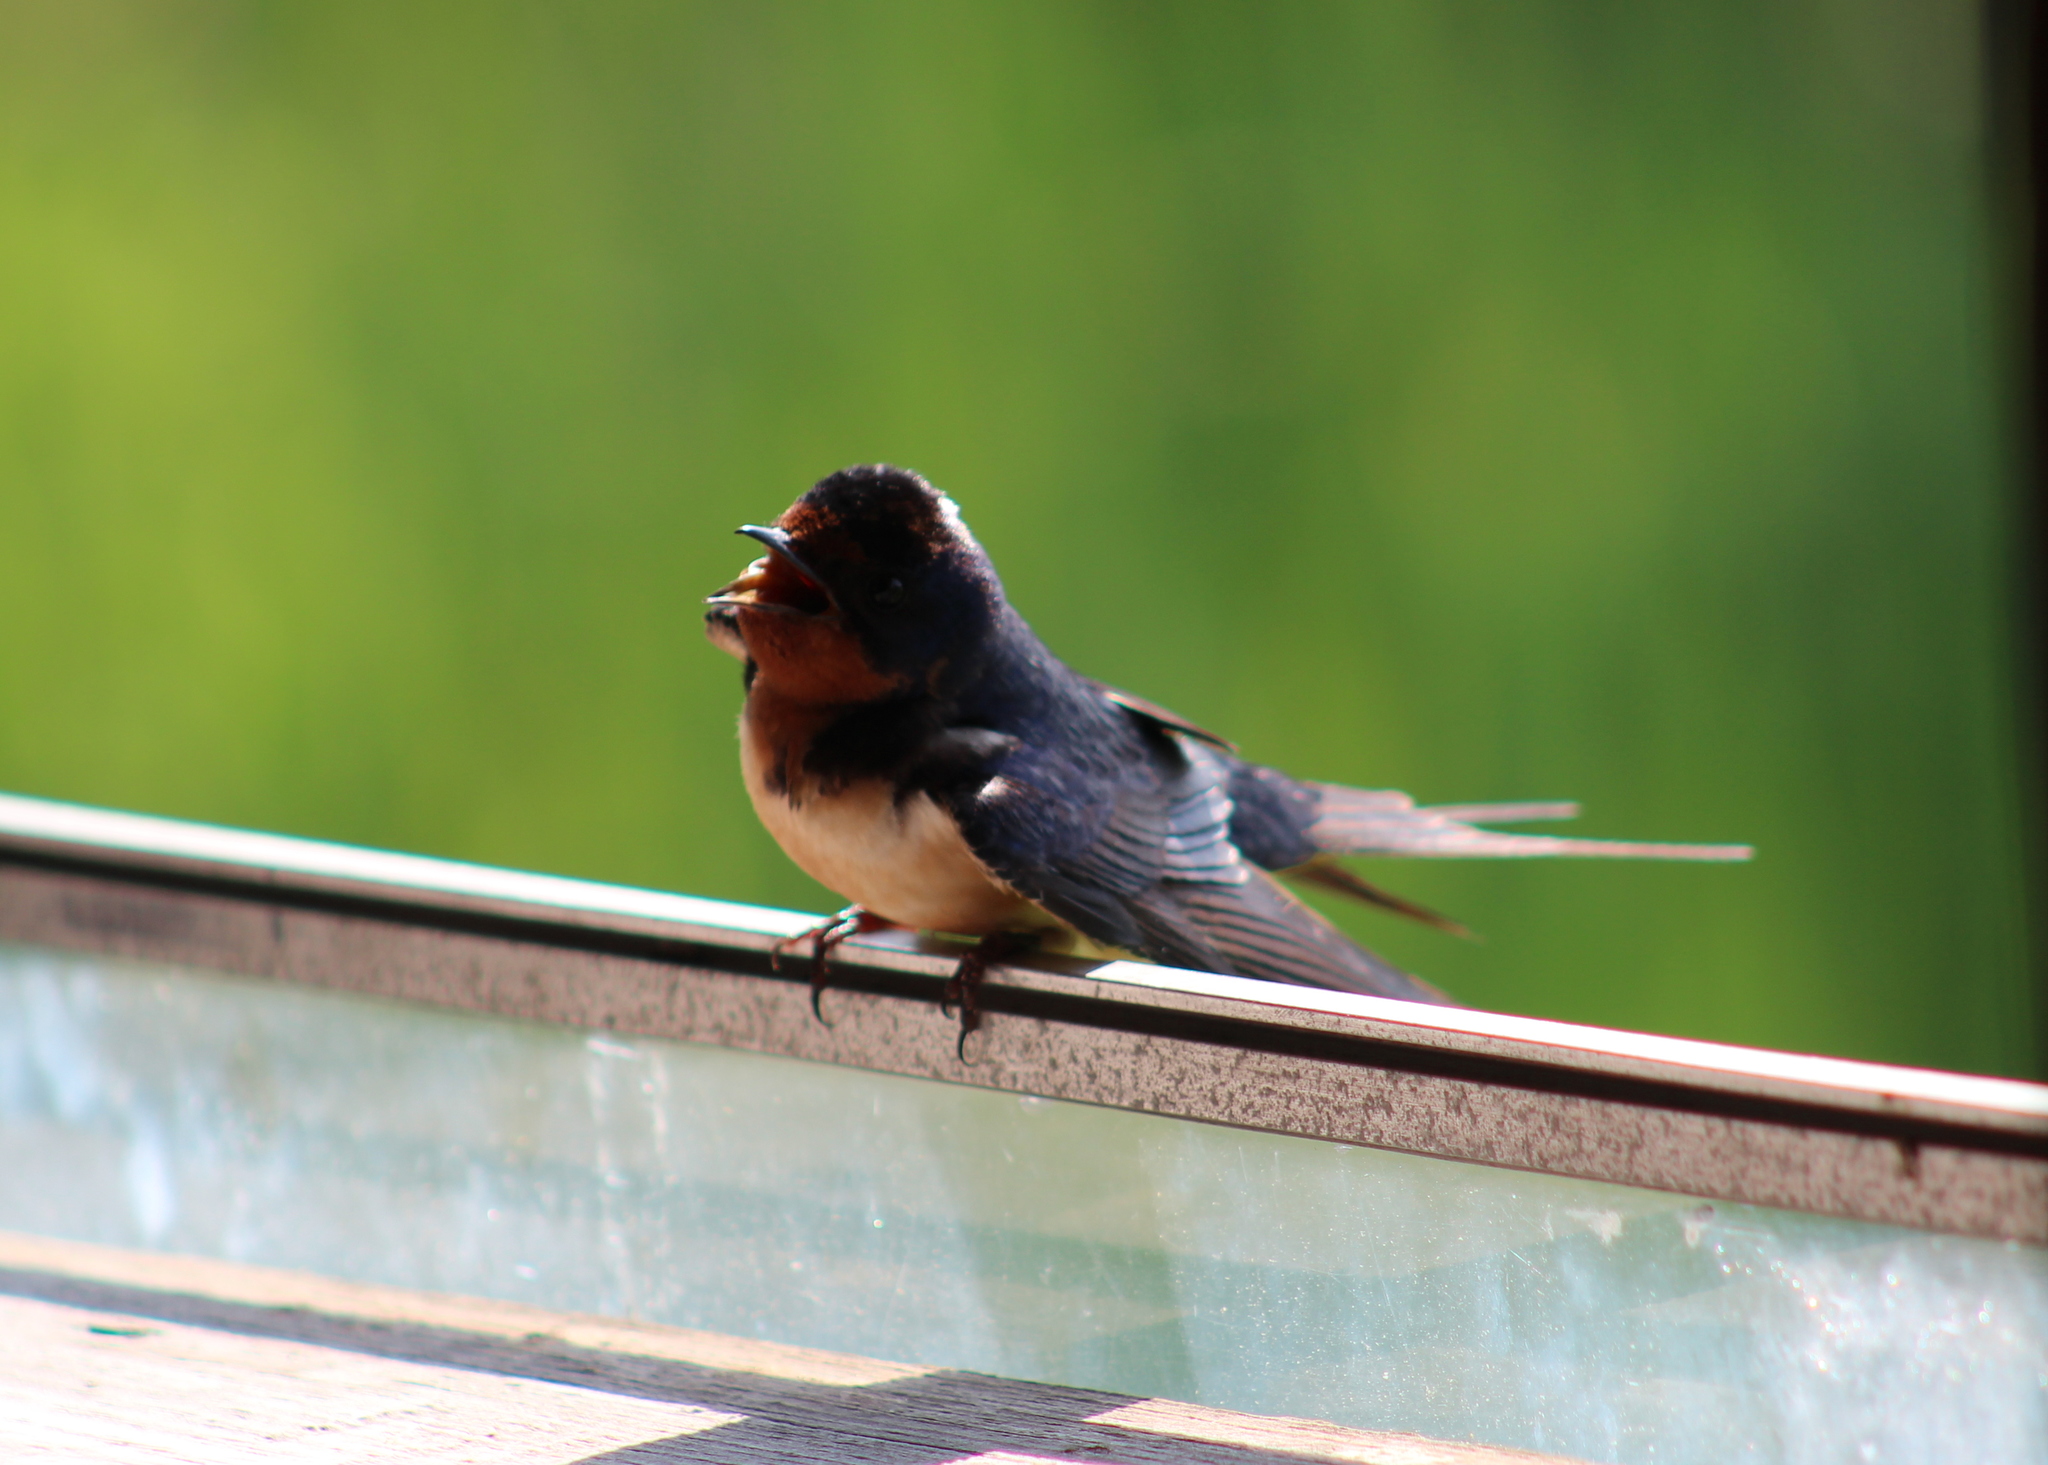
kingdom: Animalia
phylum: Chordata
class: Aves
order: Passeriformes
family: Hirundinidae
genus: Hirundo
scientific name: Hirundo rustica
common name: Barn swallow
